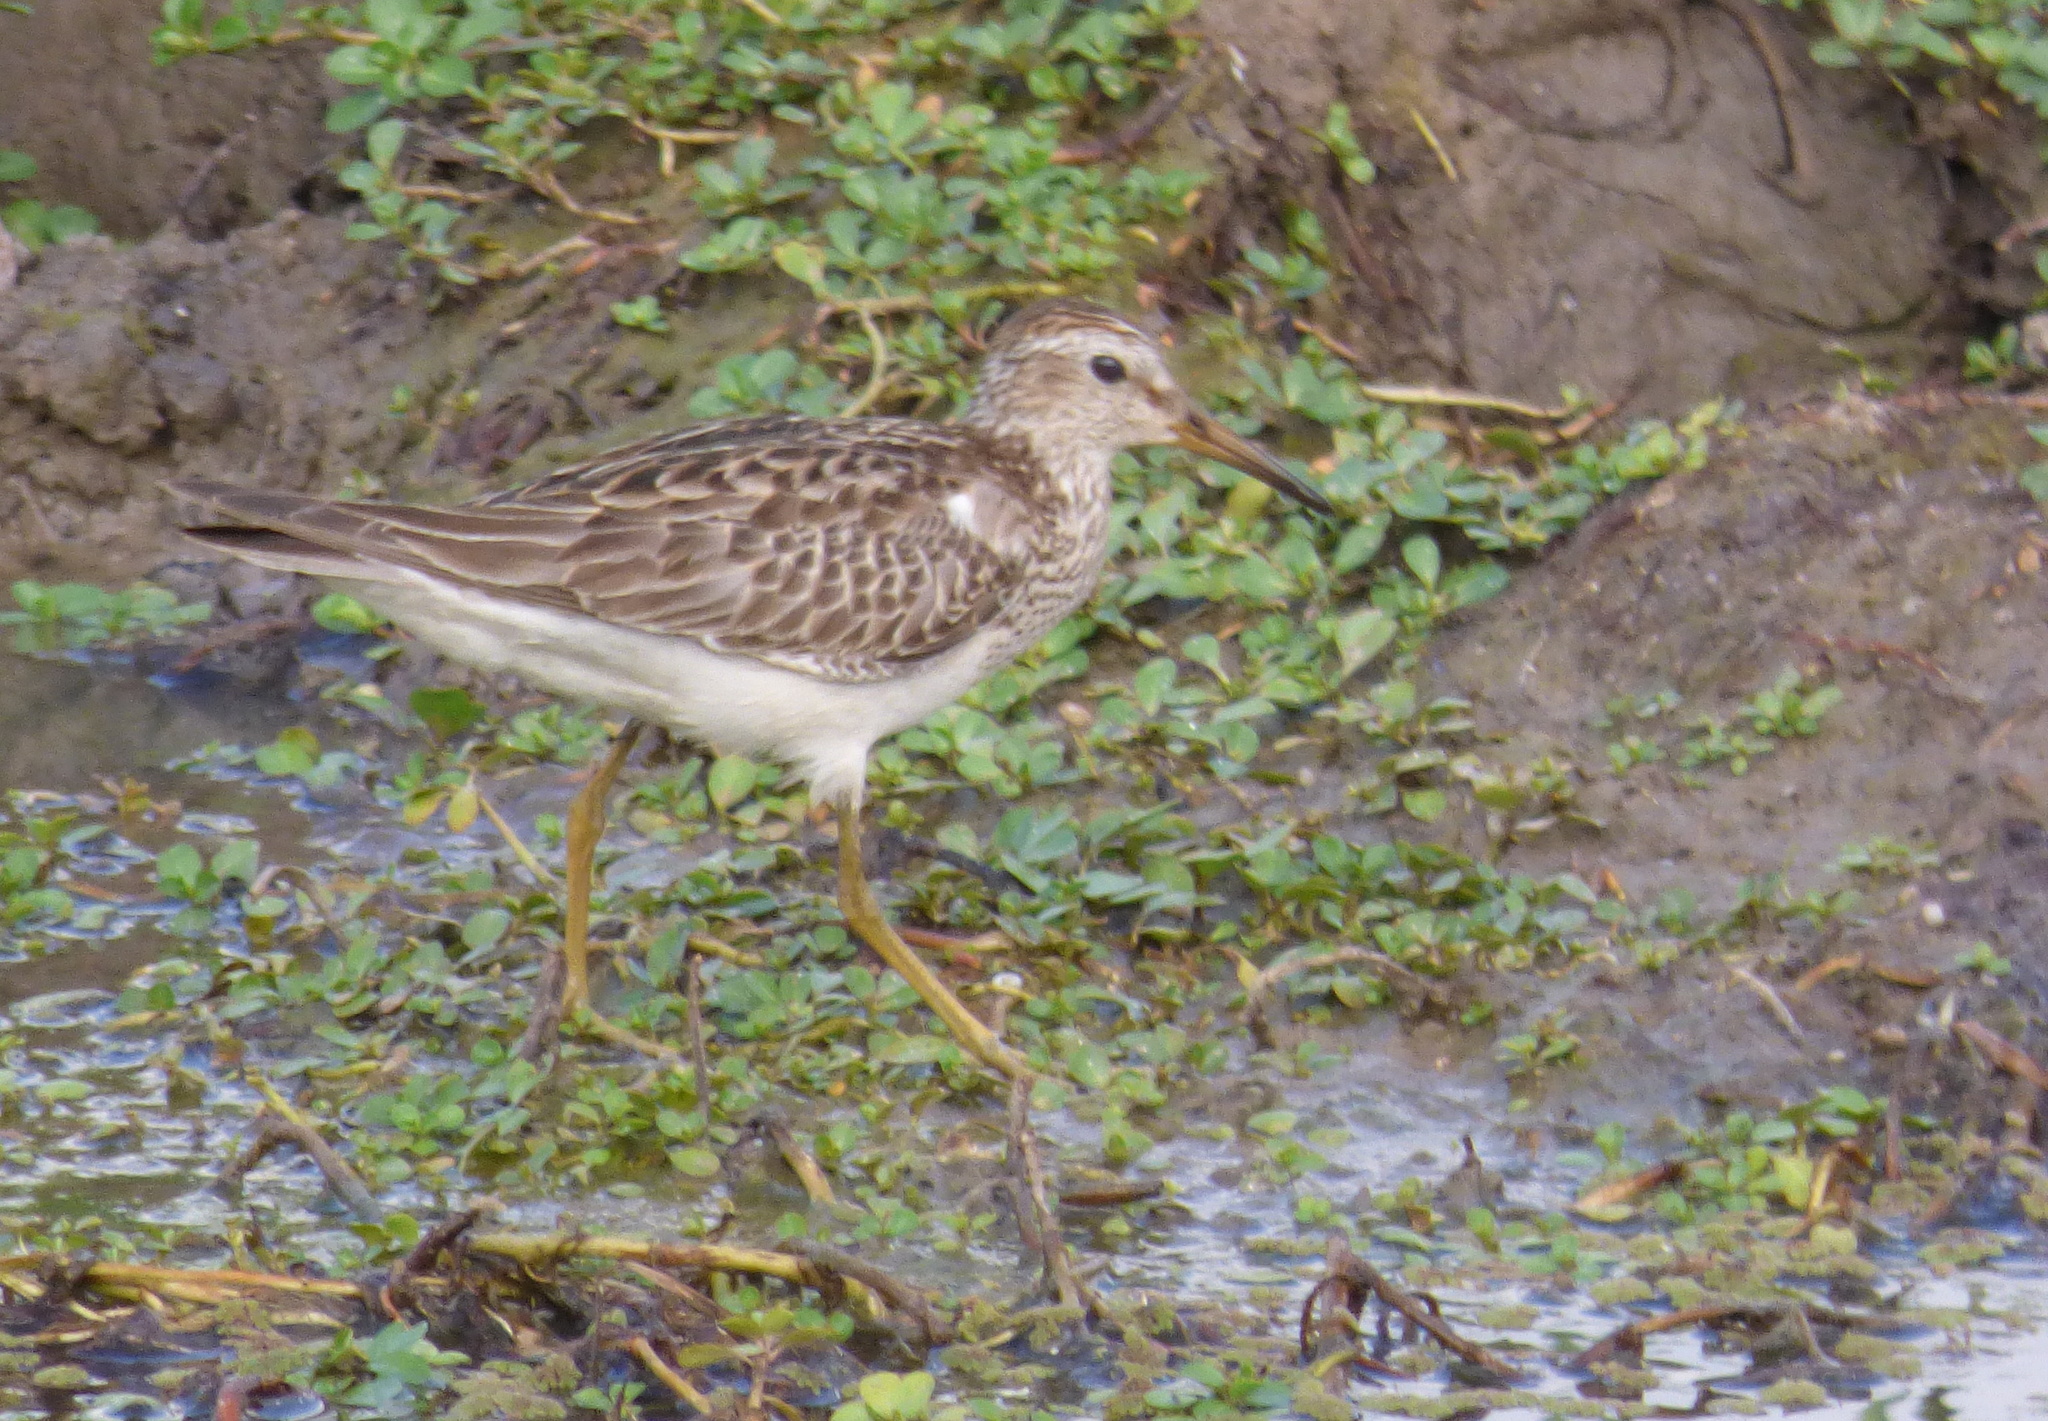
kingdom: Animalia
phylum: Chordata
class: Aves
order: Charadriiformes
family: Scolopacidae
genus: Calidris
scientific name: Calidris melanotos
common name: Pectoral sandpiper
